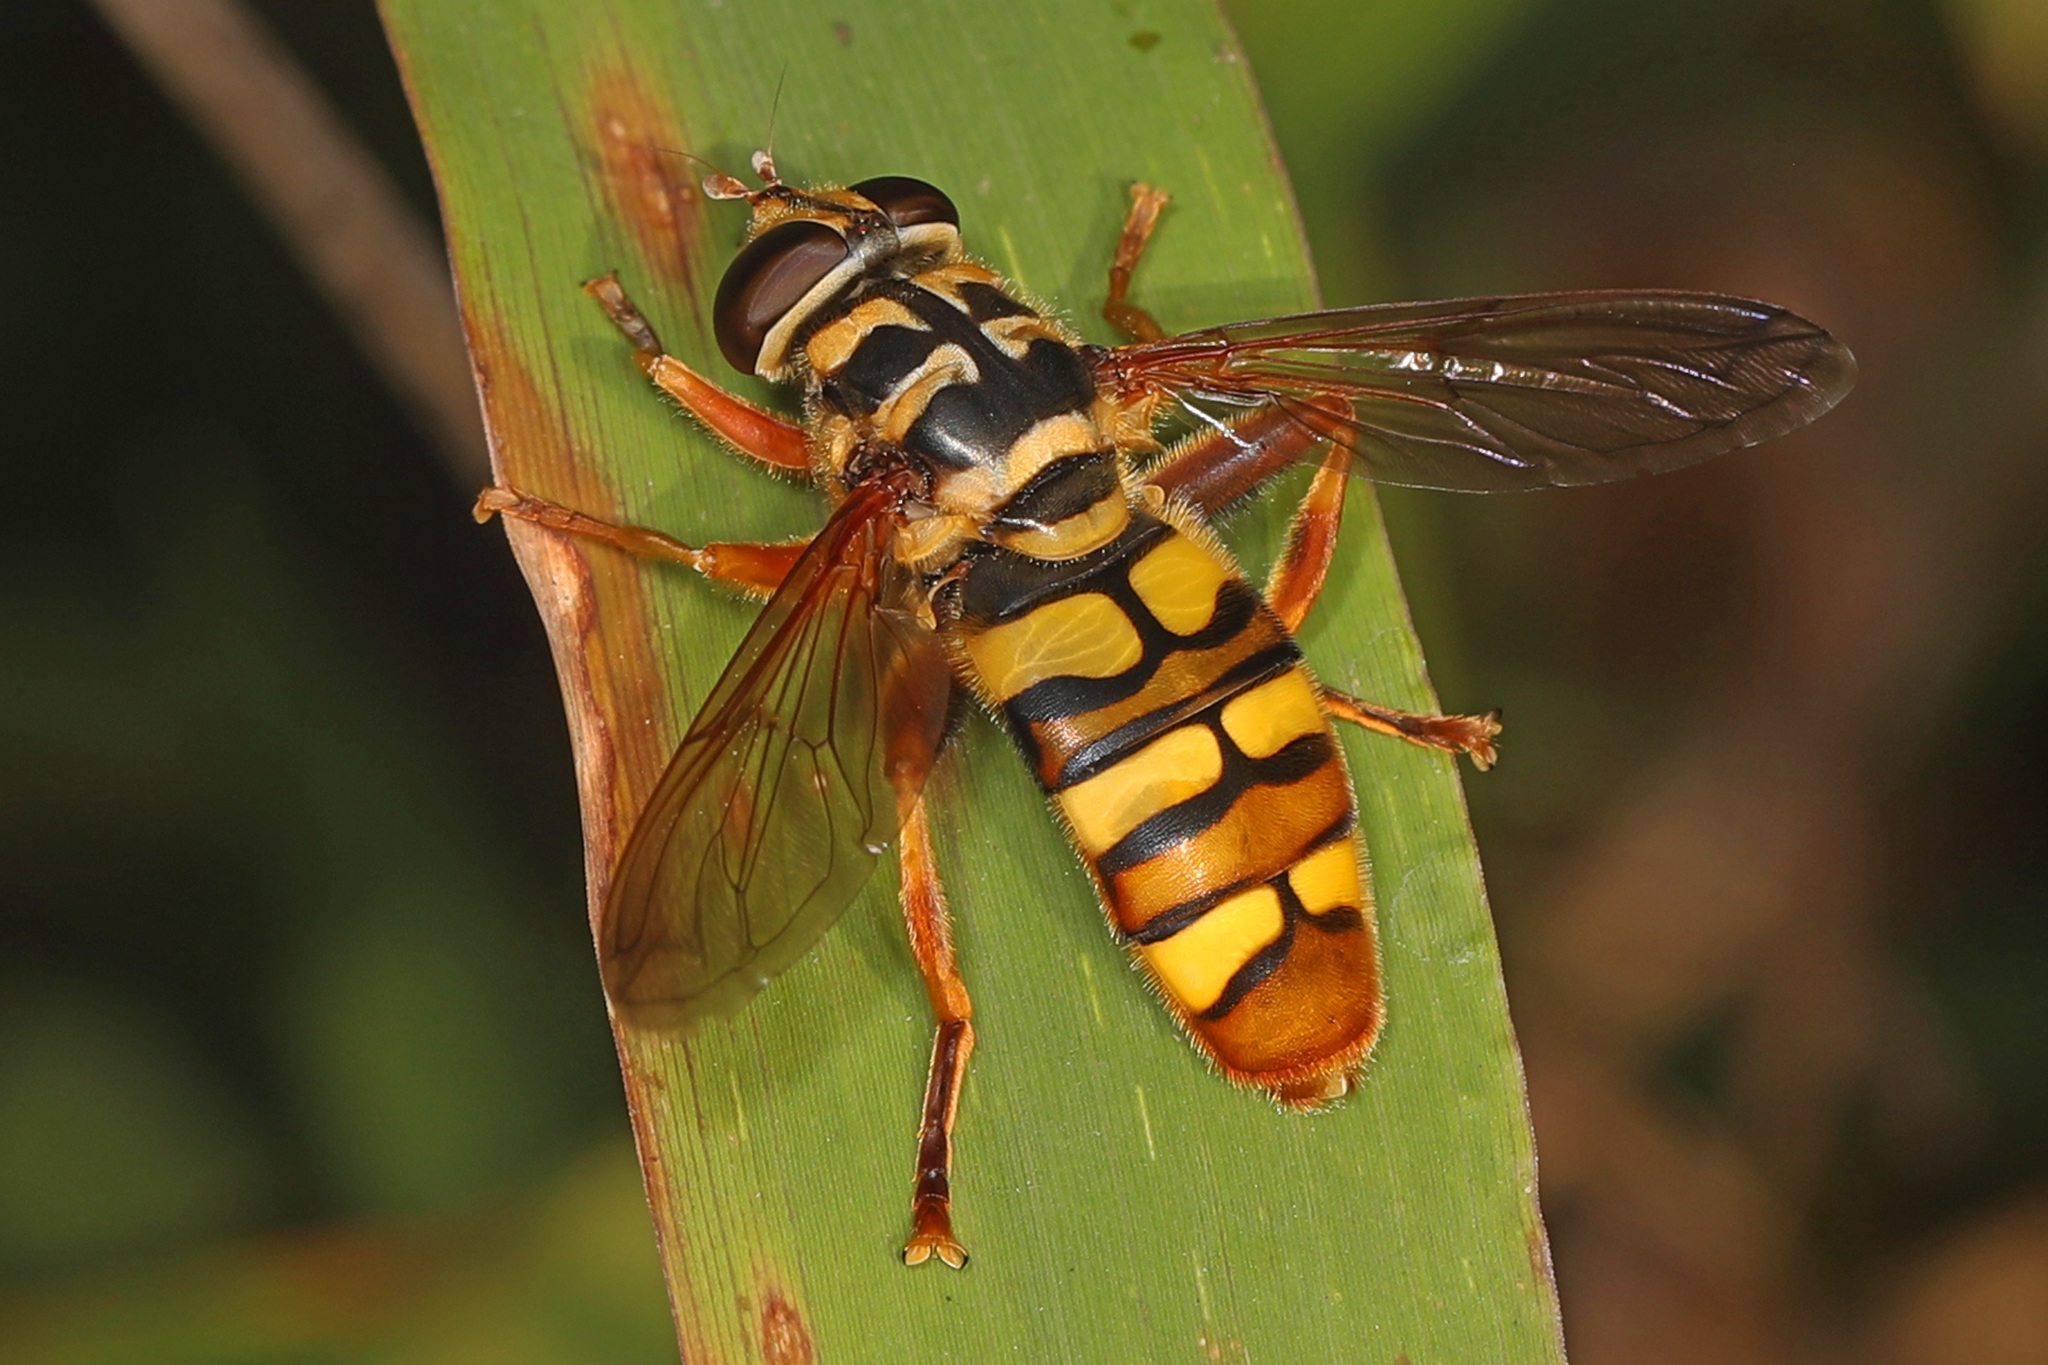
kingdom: Animalia
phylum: Arthropoda
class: Insecta
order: Diptera
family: Syrphidae
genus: Milesia
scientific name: Milesia virginiensis
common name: Virginia giant
